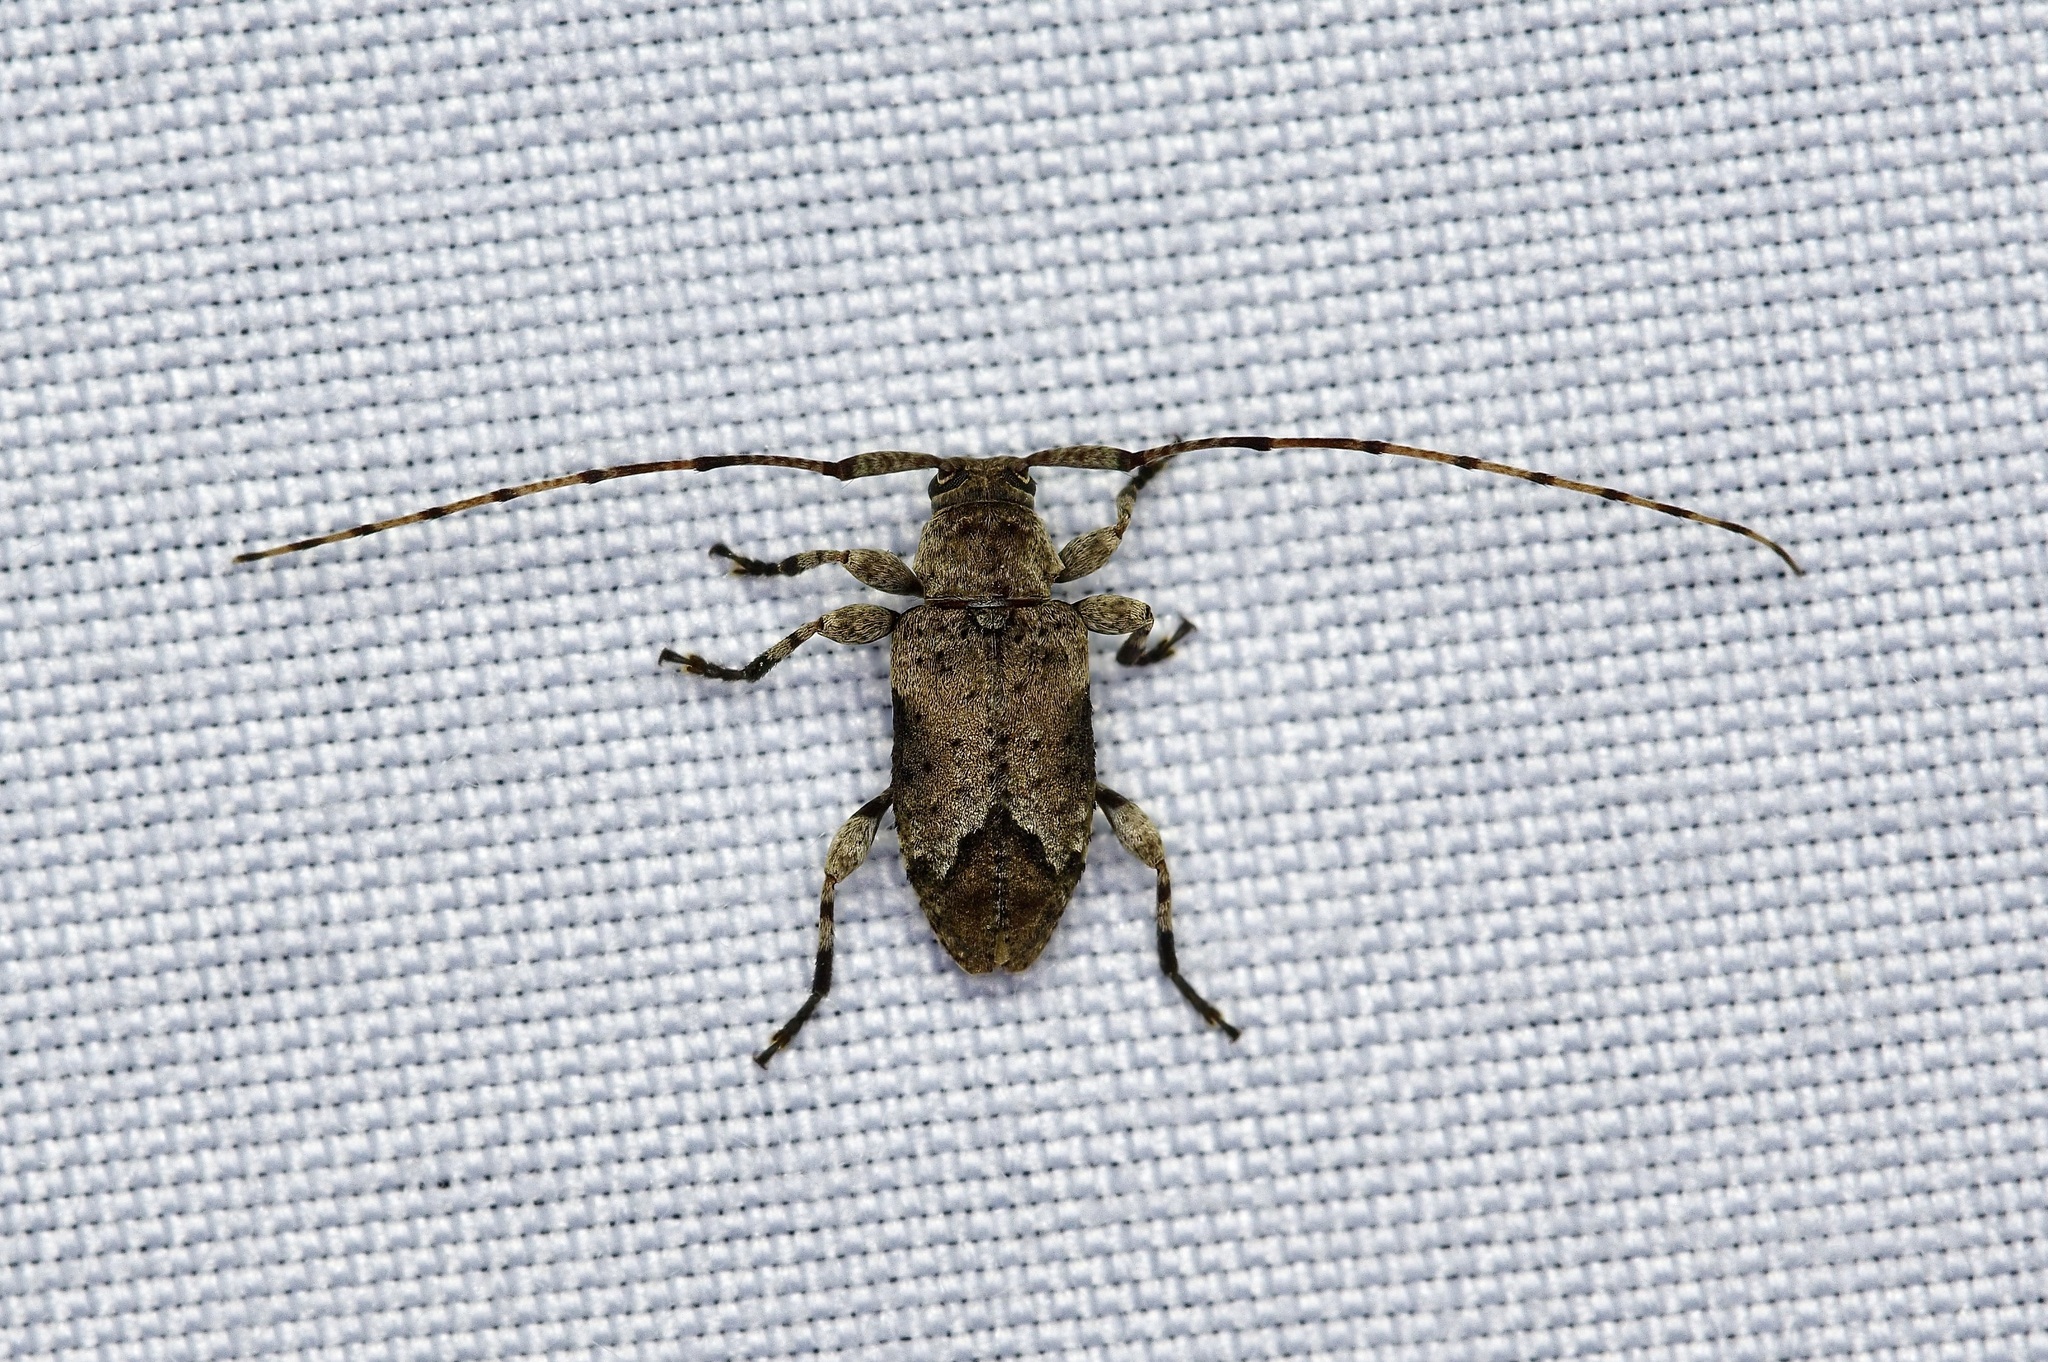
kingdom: Animalia
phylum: Arthropoda
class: Insecta
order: Coleoptera
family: Cerambycidae
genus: Sternidius
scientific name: Sternidius mimeticus
